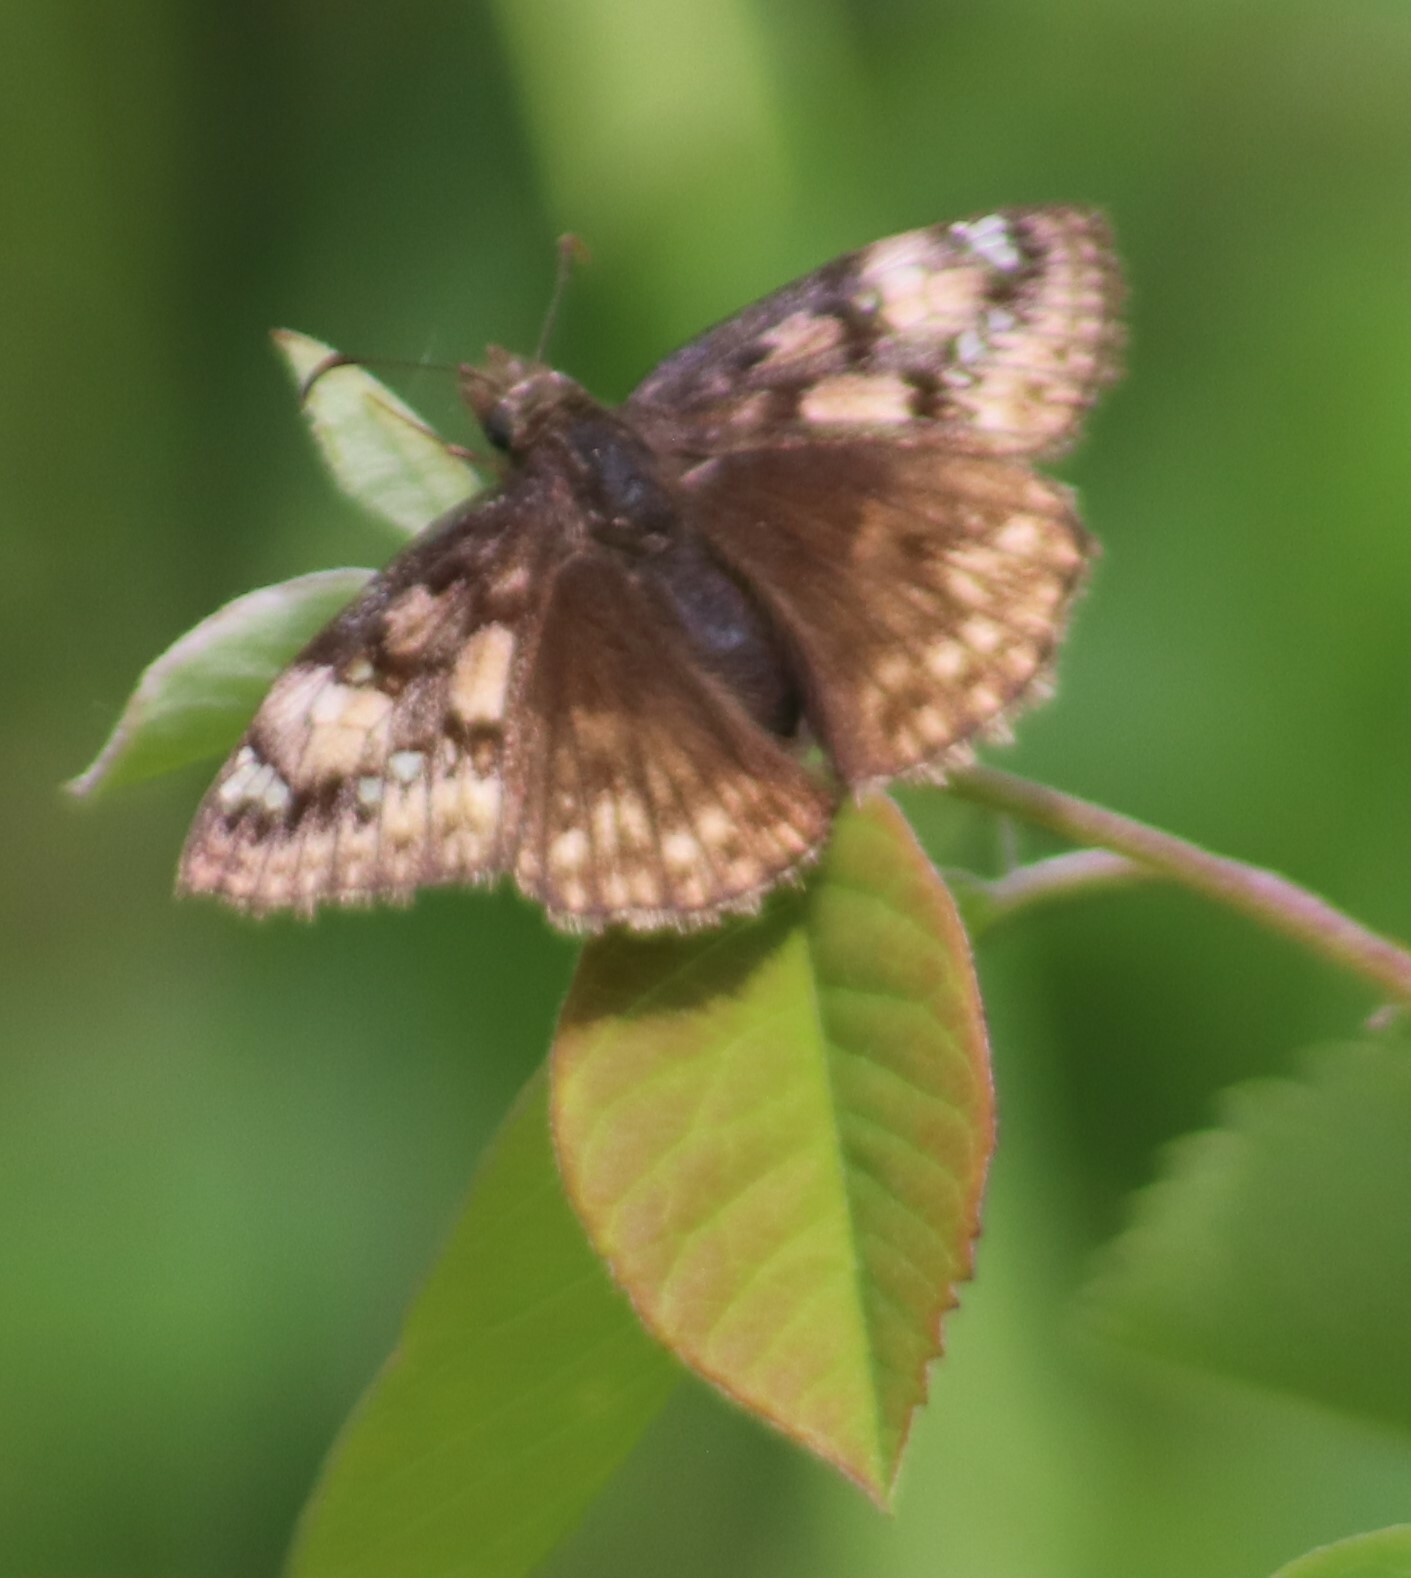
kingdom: Animalia
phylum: Arthropoda
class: Insecta
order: Lepidoptera
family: Hesperiidae
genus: Erynnis
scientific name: Erynnis juvenalis
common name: Juvenal's duskywing
